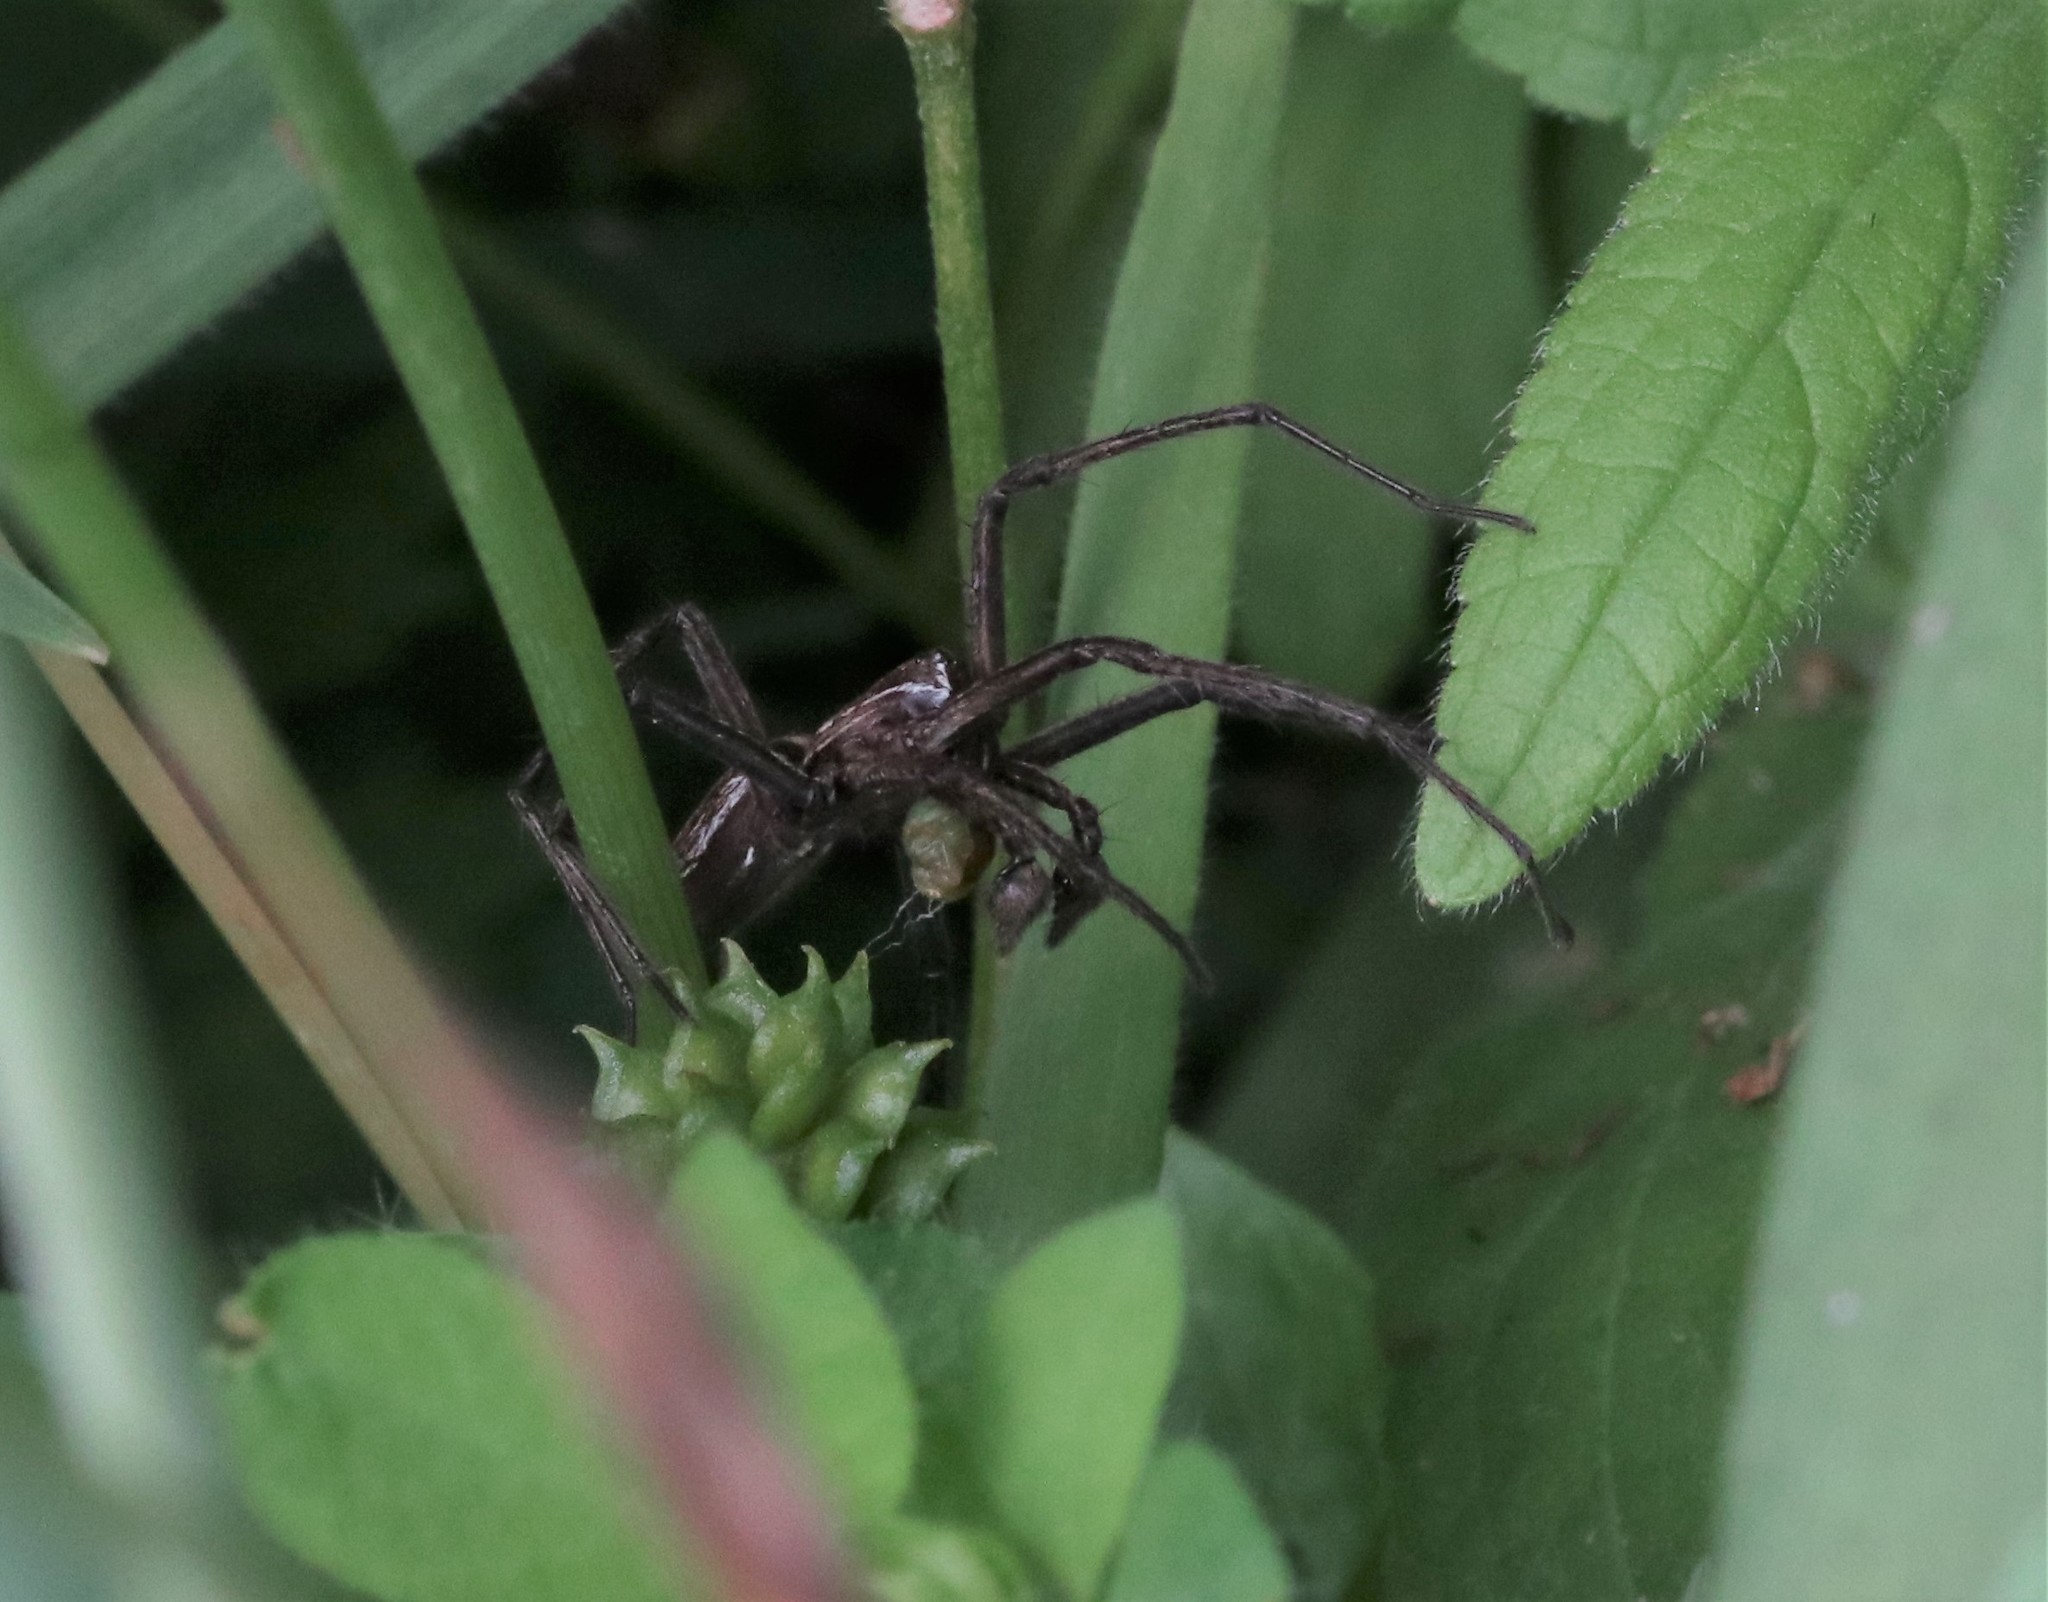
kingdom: Animalia
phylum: Arthropoda
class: Arachnida
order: Araneae
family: Pisauridae
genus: Pisaura
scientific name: Pisaura mirabilis
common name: Tent spider
